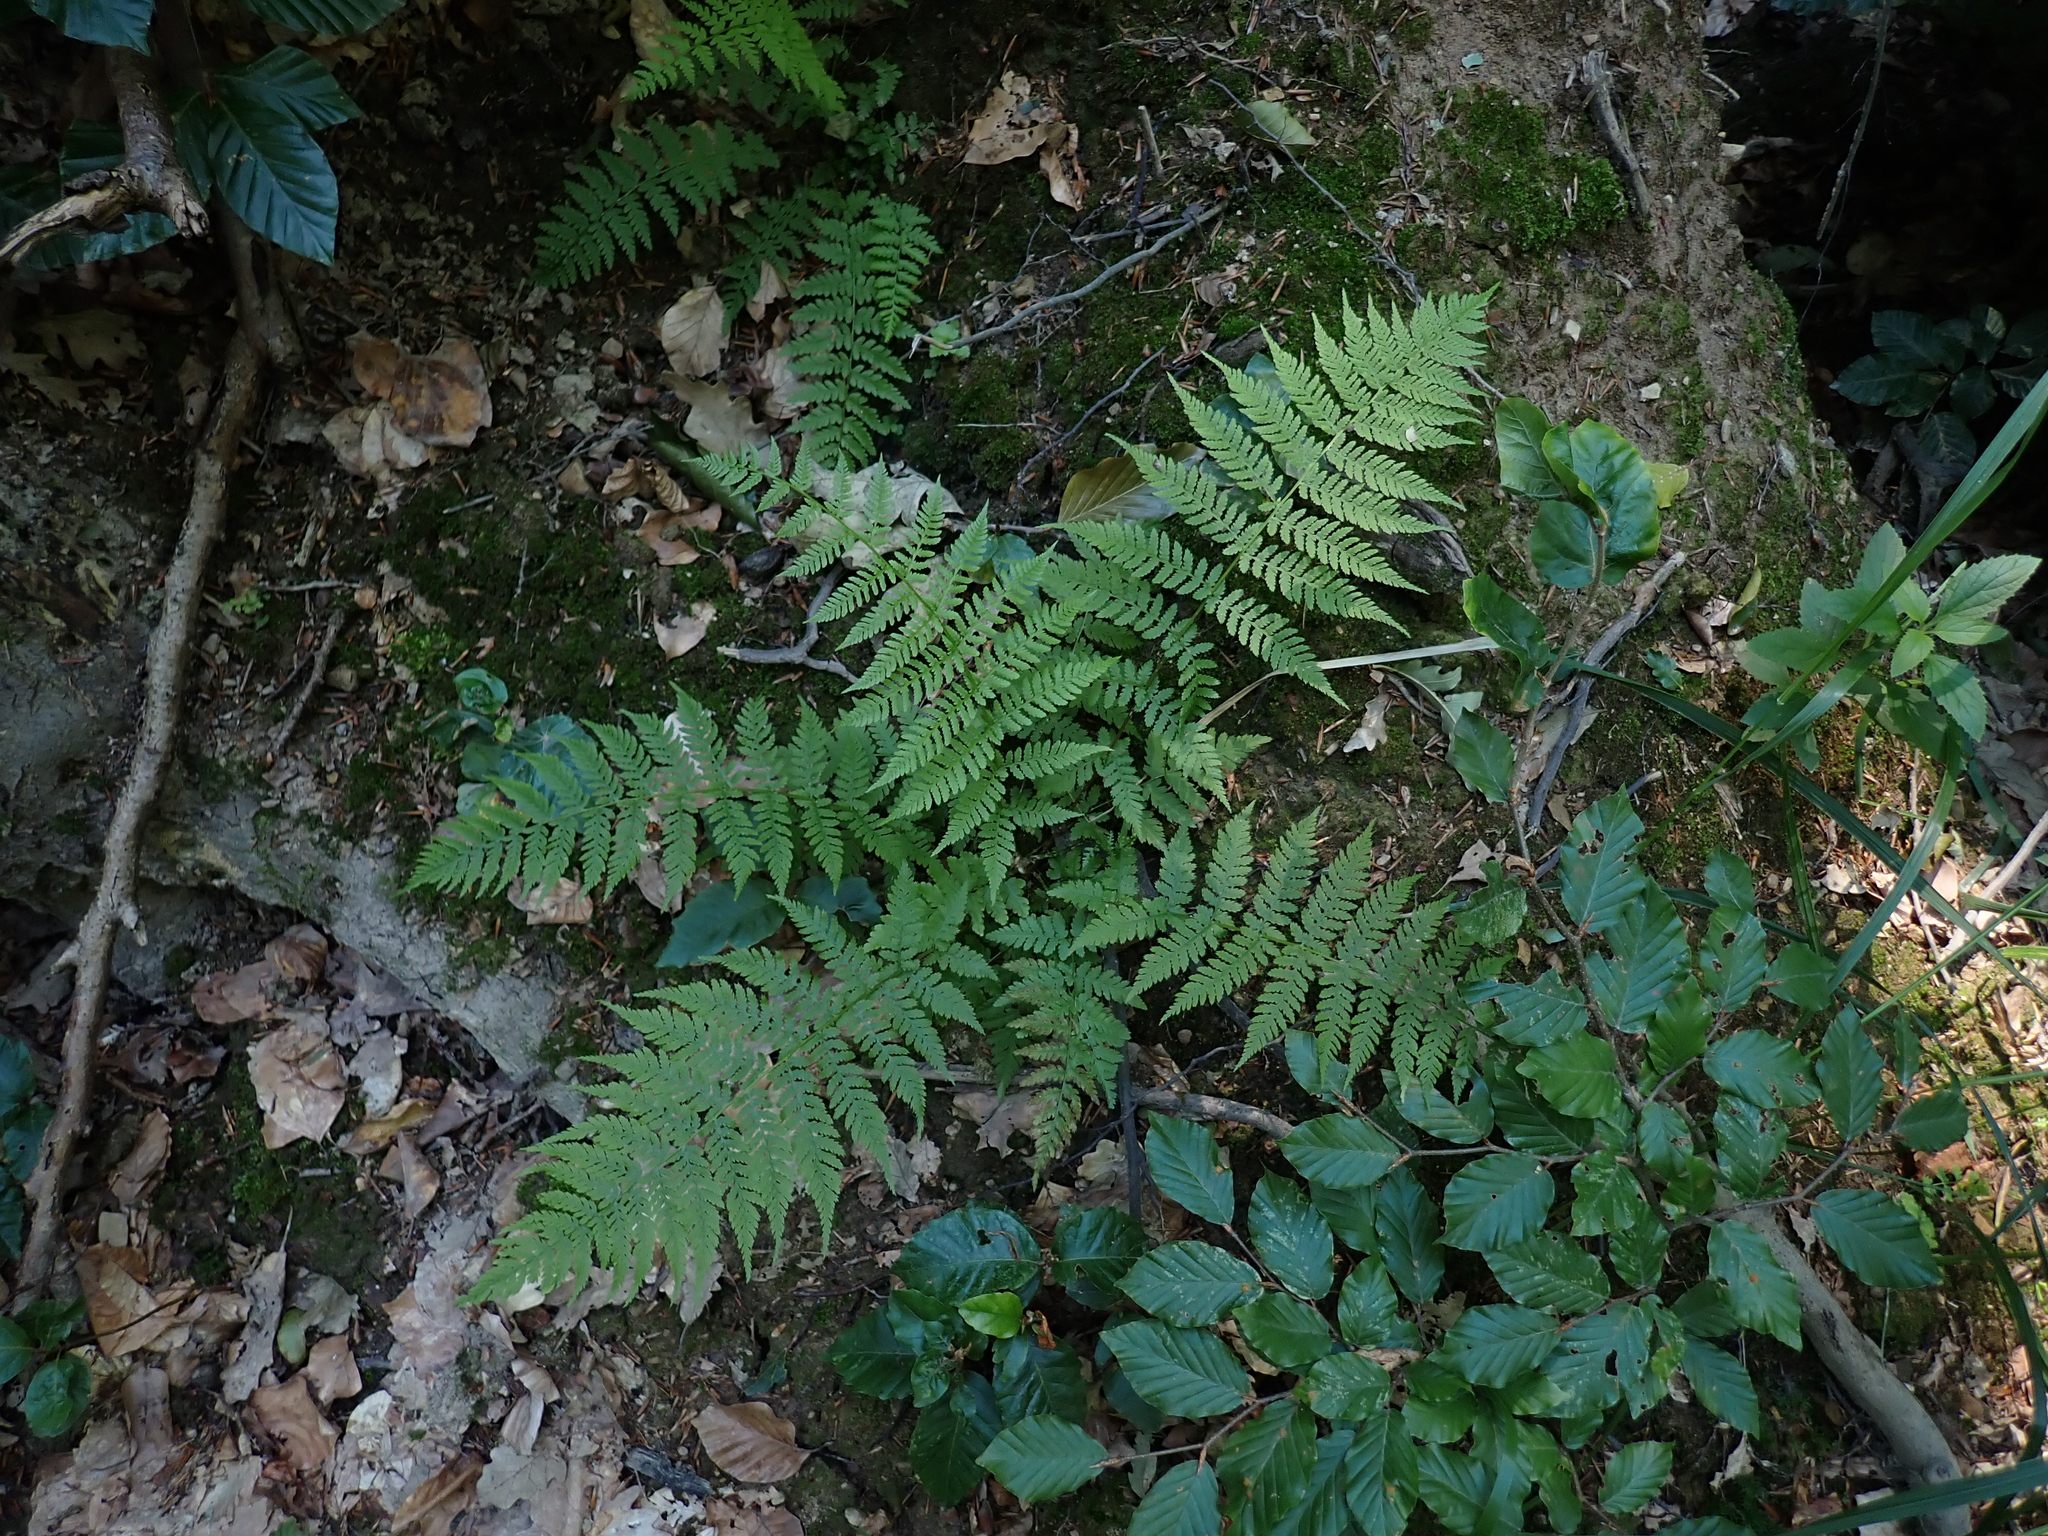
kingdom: Plantae
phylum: Tracheophyta
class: Polypodiopsida
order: Polypodiales
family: Athyriaceae
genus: Athyrium
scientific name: Athyrium filix-femina
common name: Lady fern
